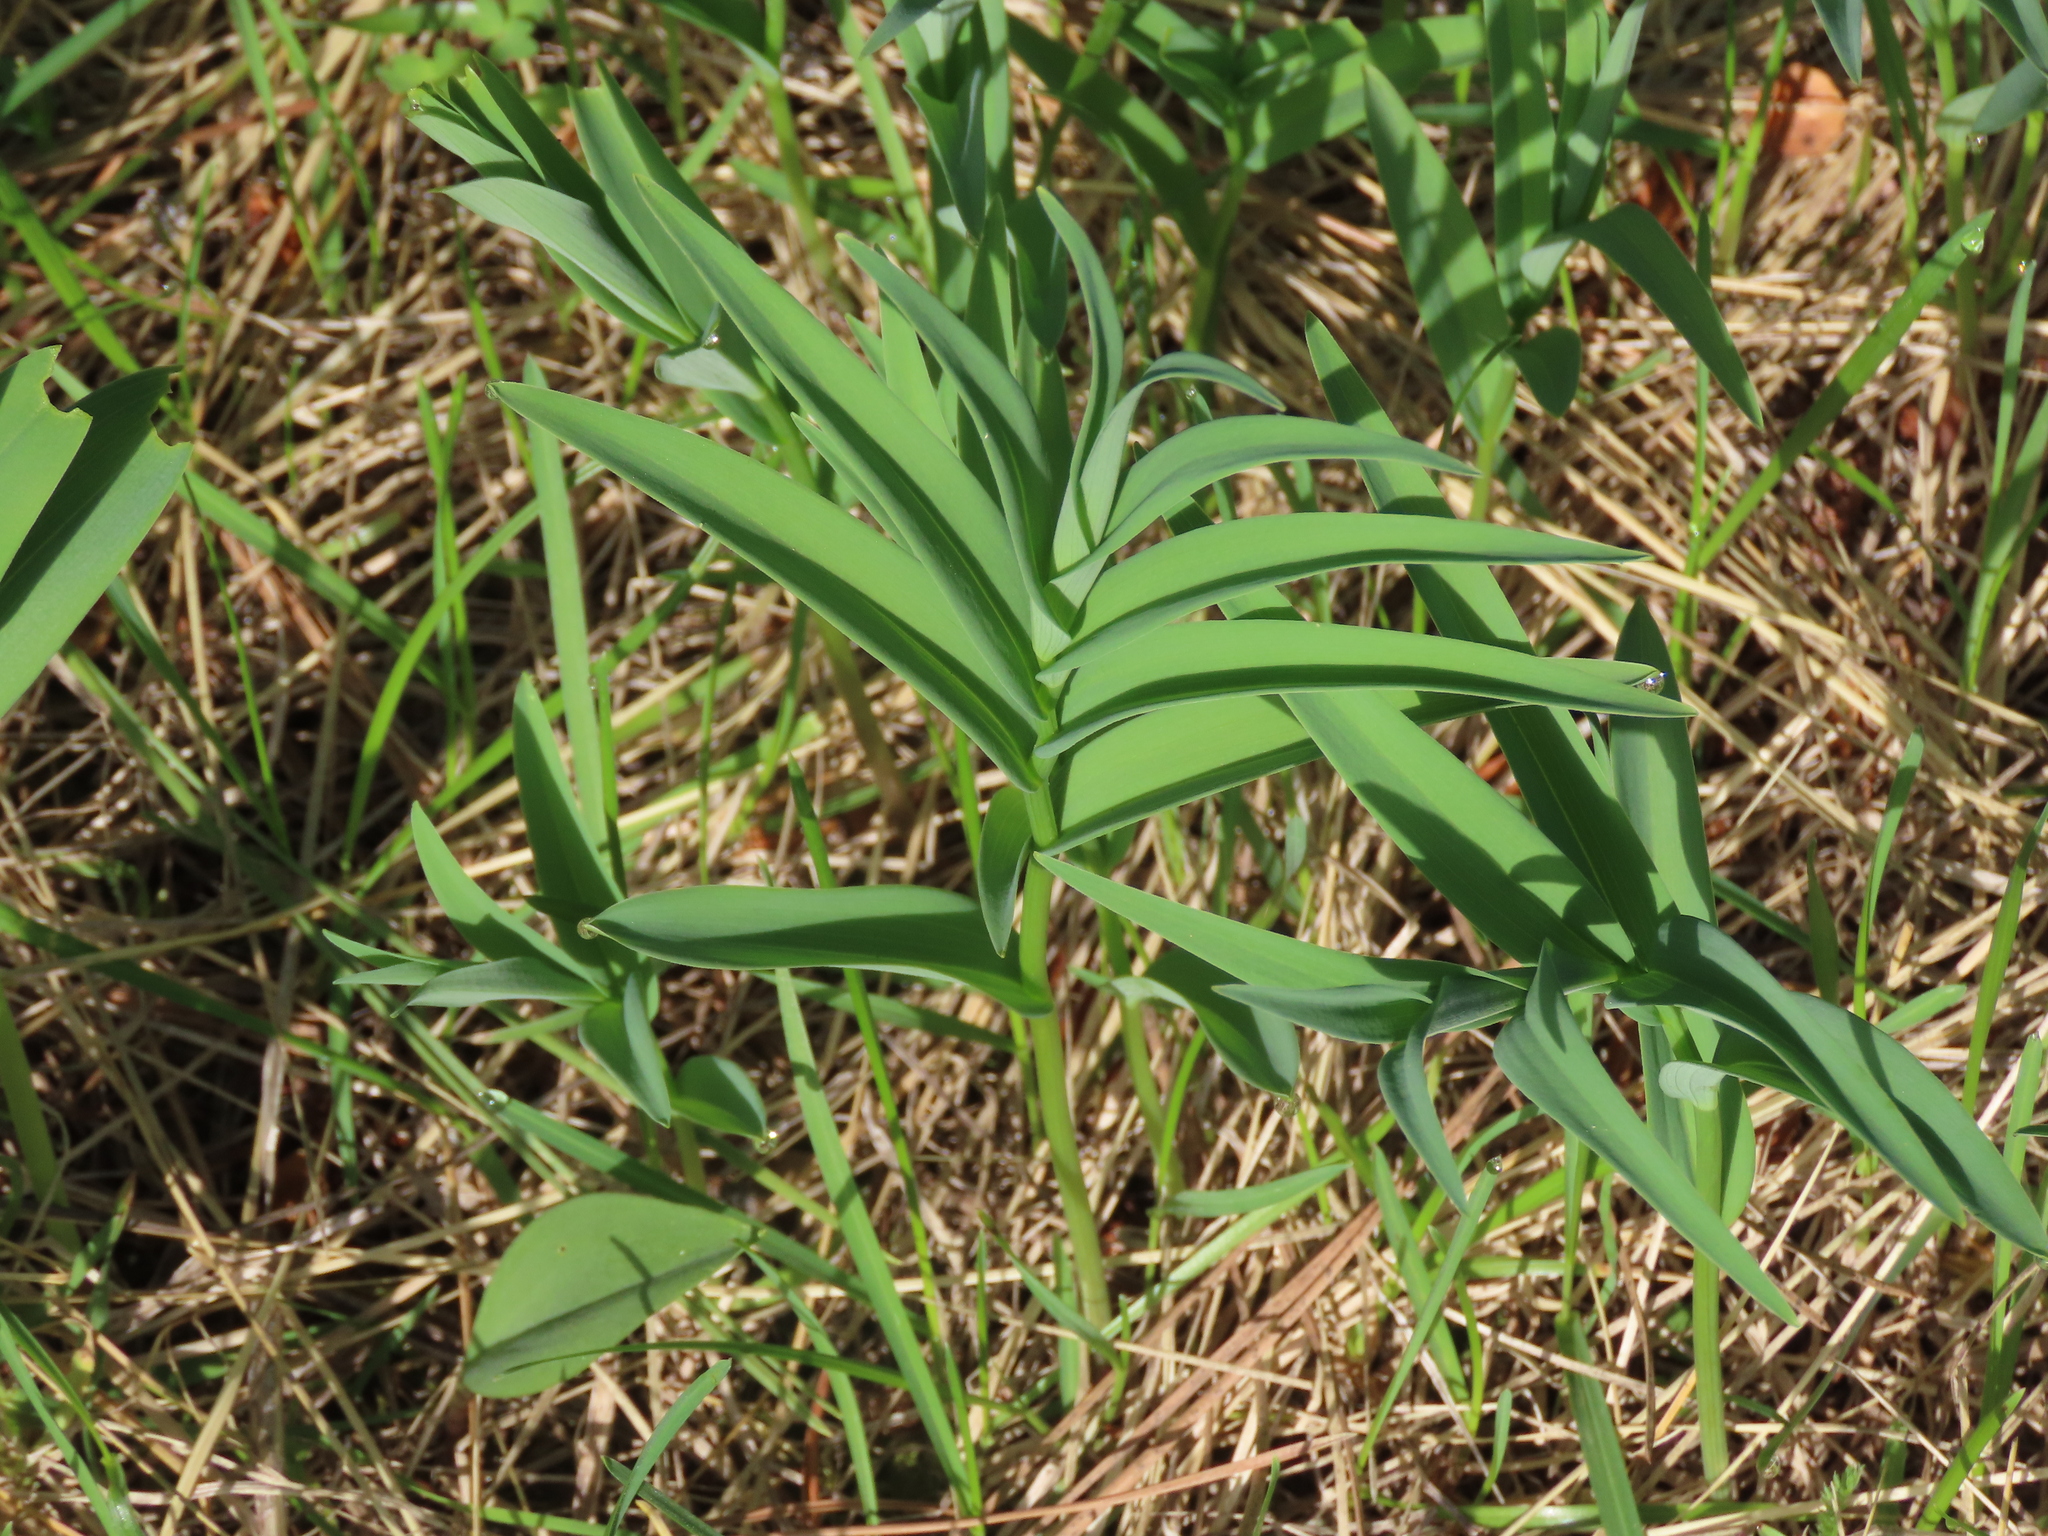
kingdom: Plantae
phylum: Tracheophyta
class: Liliopsida
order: Asparagales
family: Asparagaceae
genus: Maianthemum
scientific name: Maianthemum stellatum
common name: Little false solomon's seal
